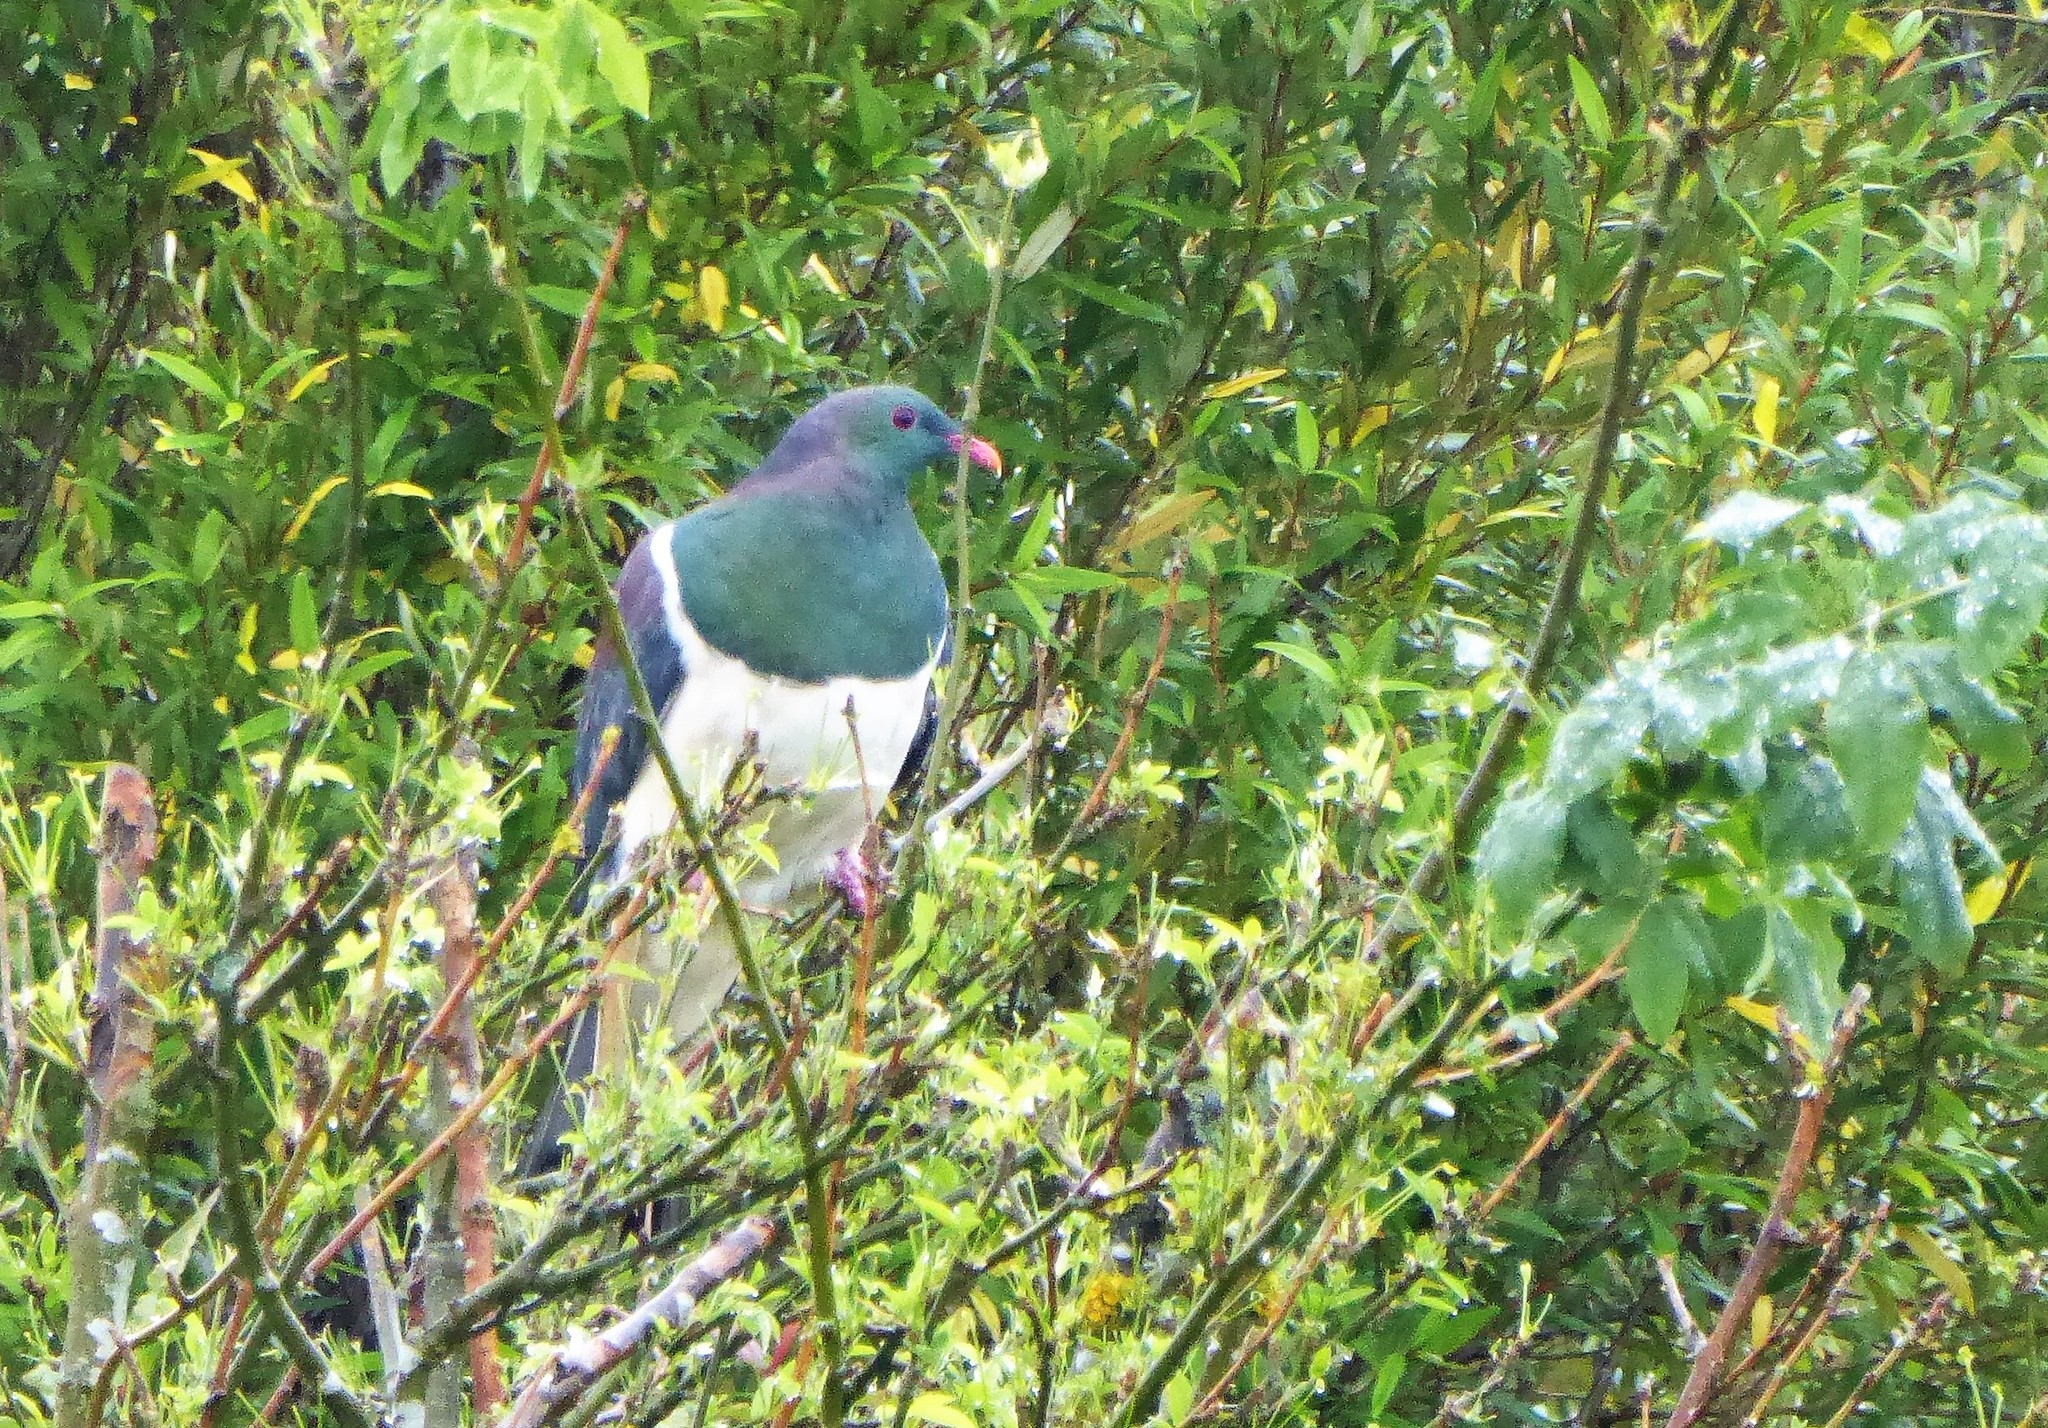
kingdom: Animalia
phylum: Chordata
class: Aves
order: Columbiformes
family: Columbidae
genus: Hemiphaga
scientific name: Hemiphaga novaeseelandiae
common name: New zealand pigeon
